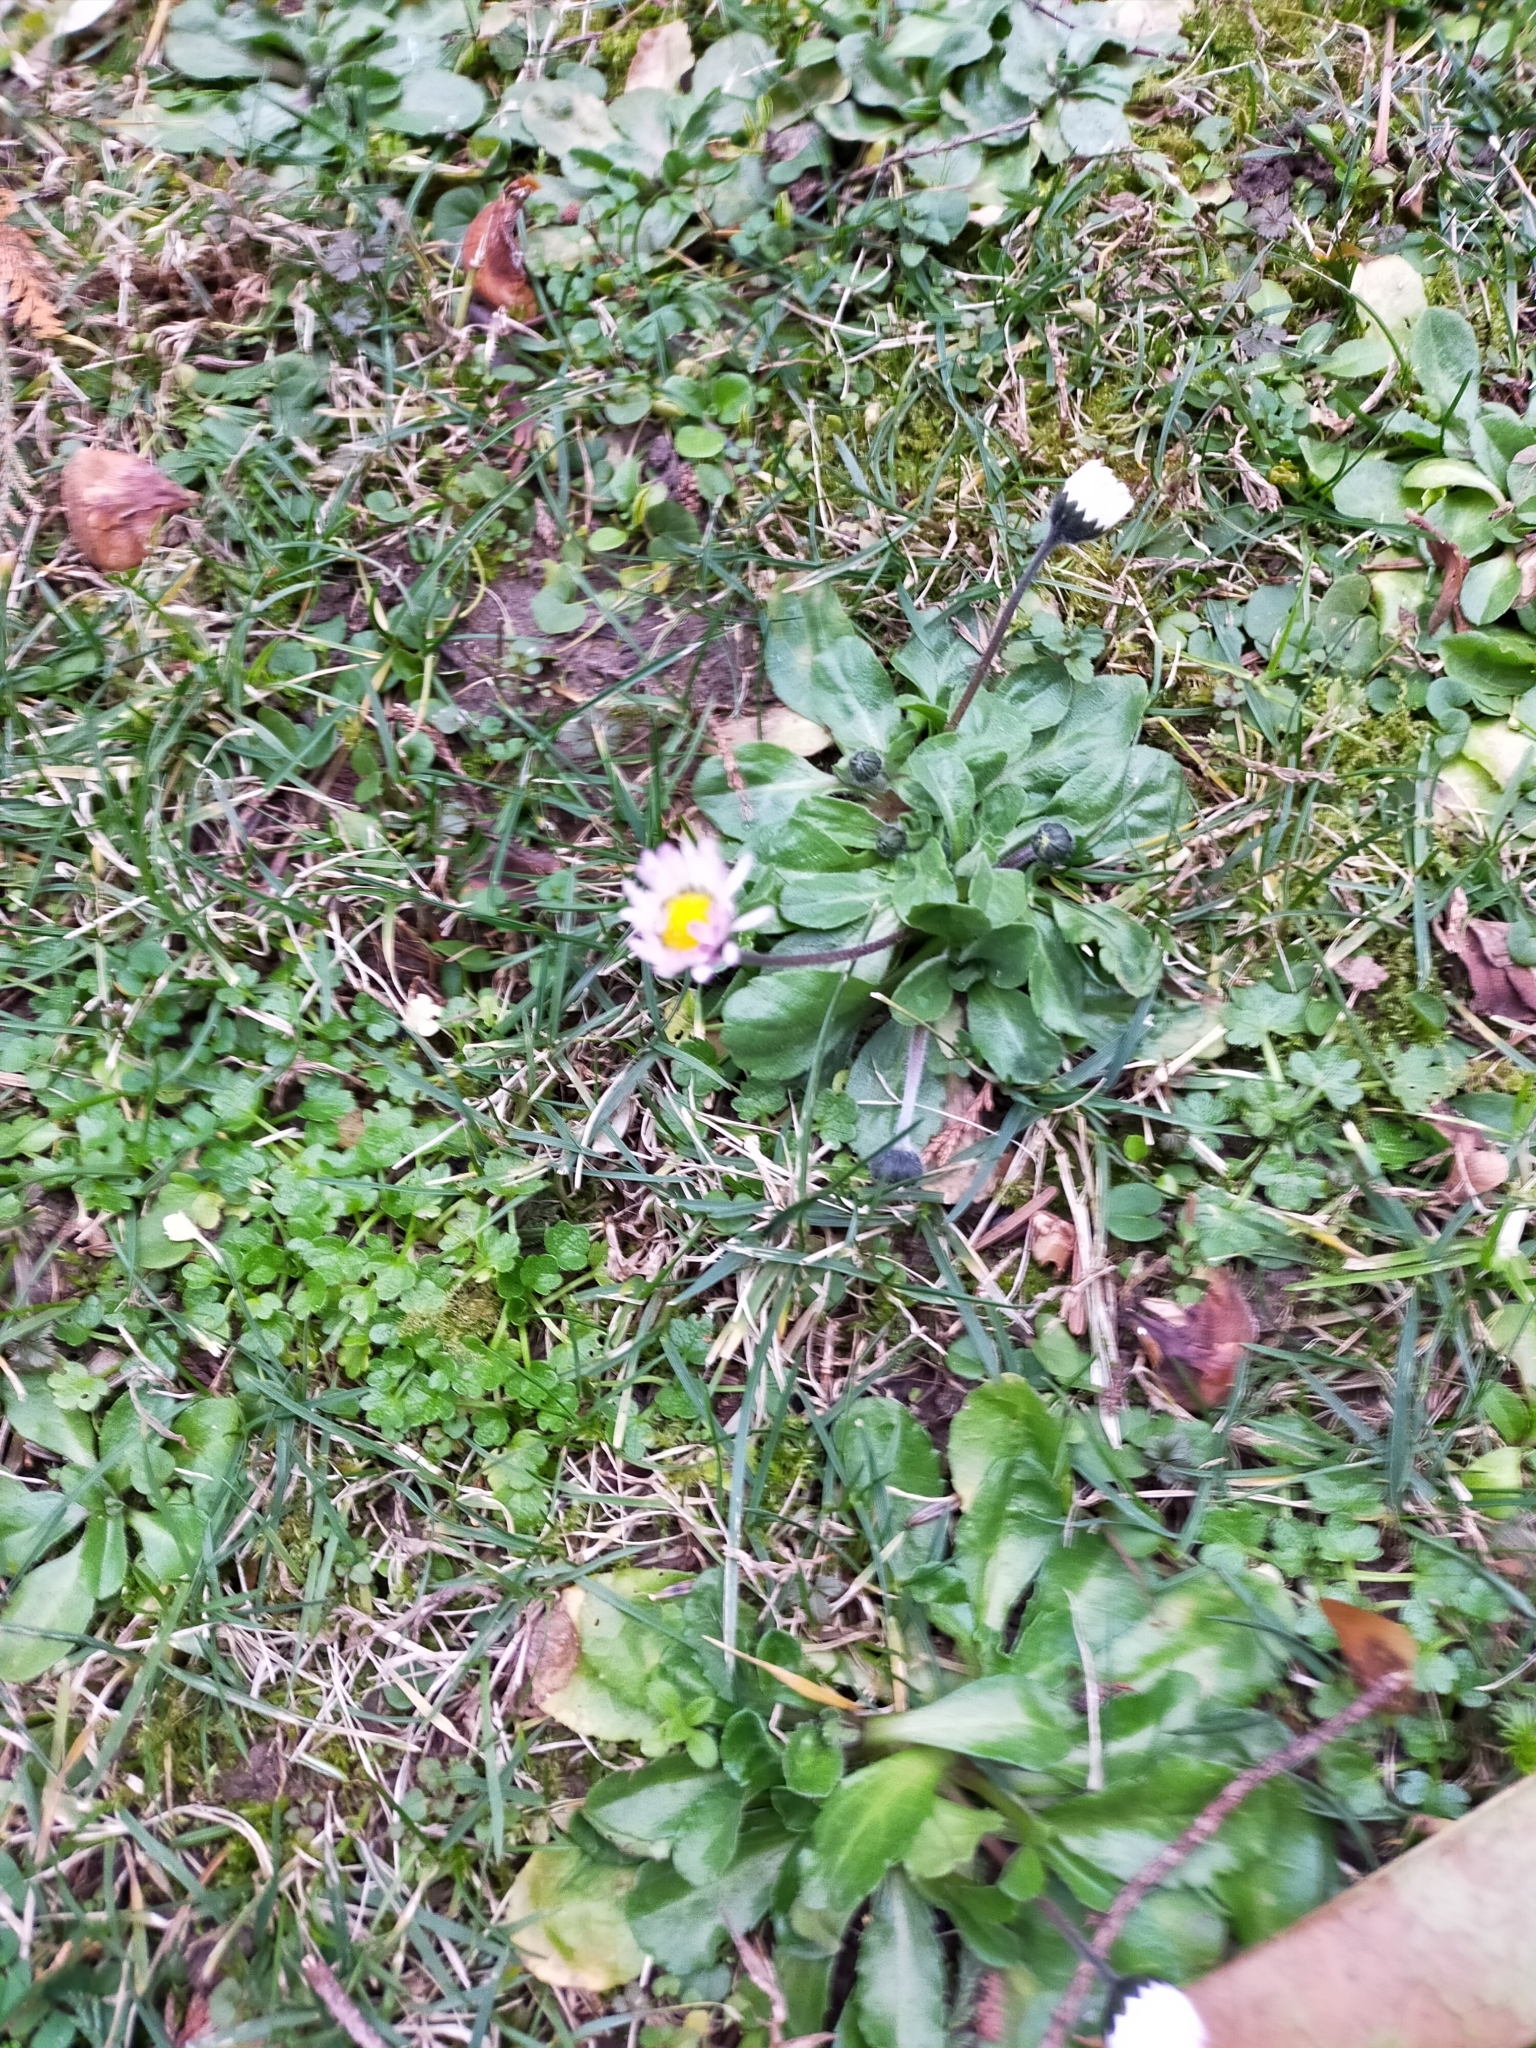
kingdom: Plantae
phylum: Tracheophyta
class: Magnoliopsida
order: Asterales
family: Asteraceae
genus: Bellis
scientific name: Bellis perennis
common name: Lawndaisy
